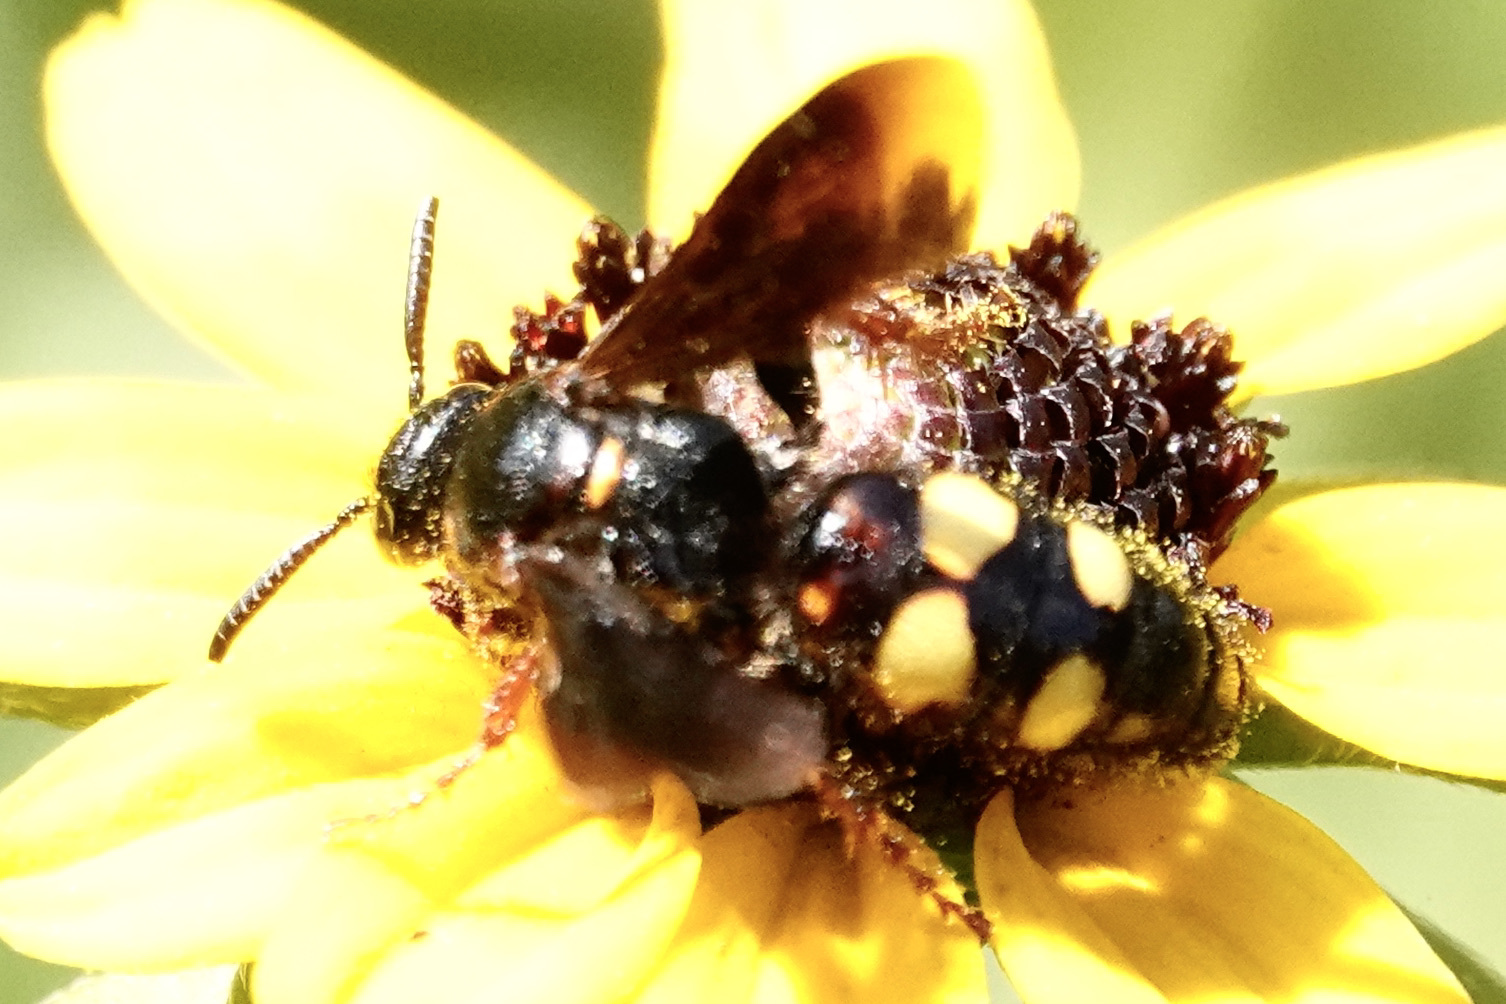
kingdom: Animalia
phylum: Arthropoda
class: Insecta
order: Hymenoptera
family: Scoliidae
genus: Scolia
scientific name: Scolia nobilitata
